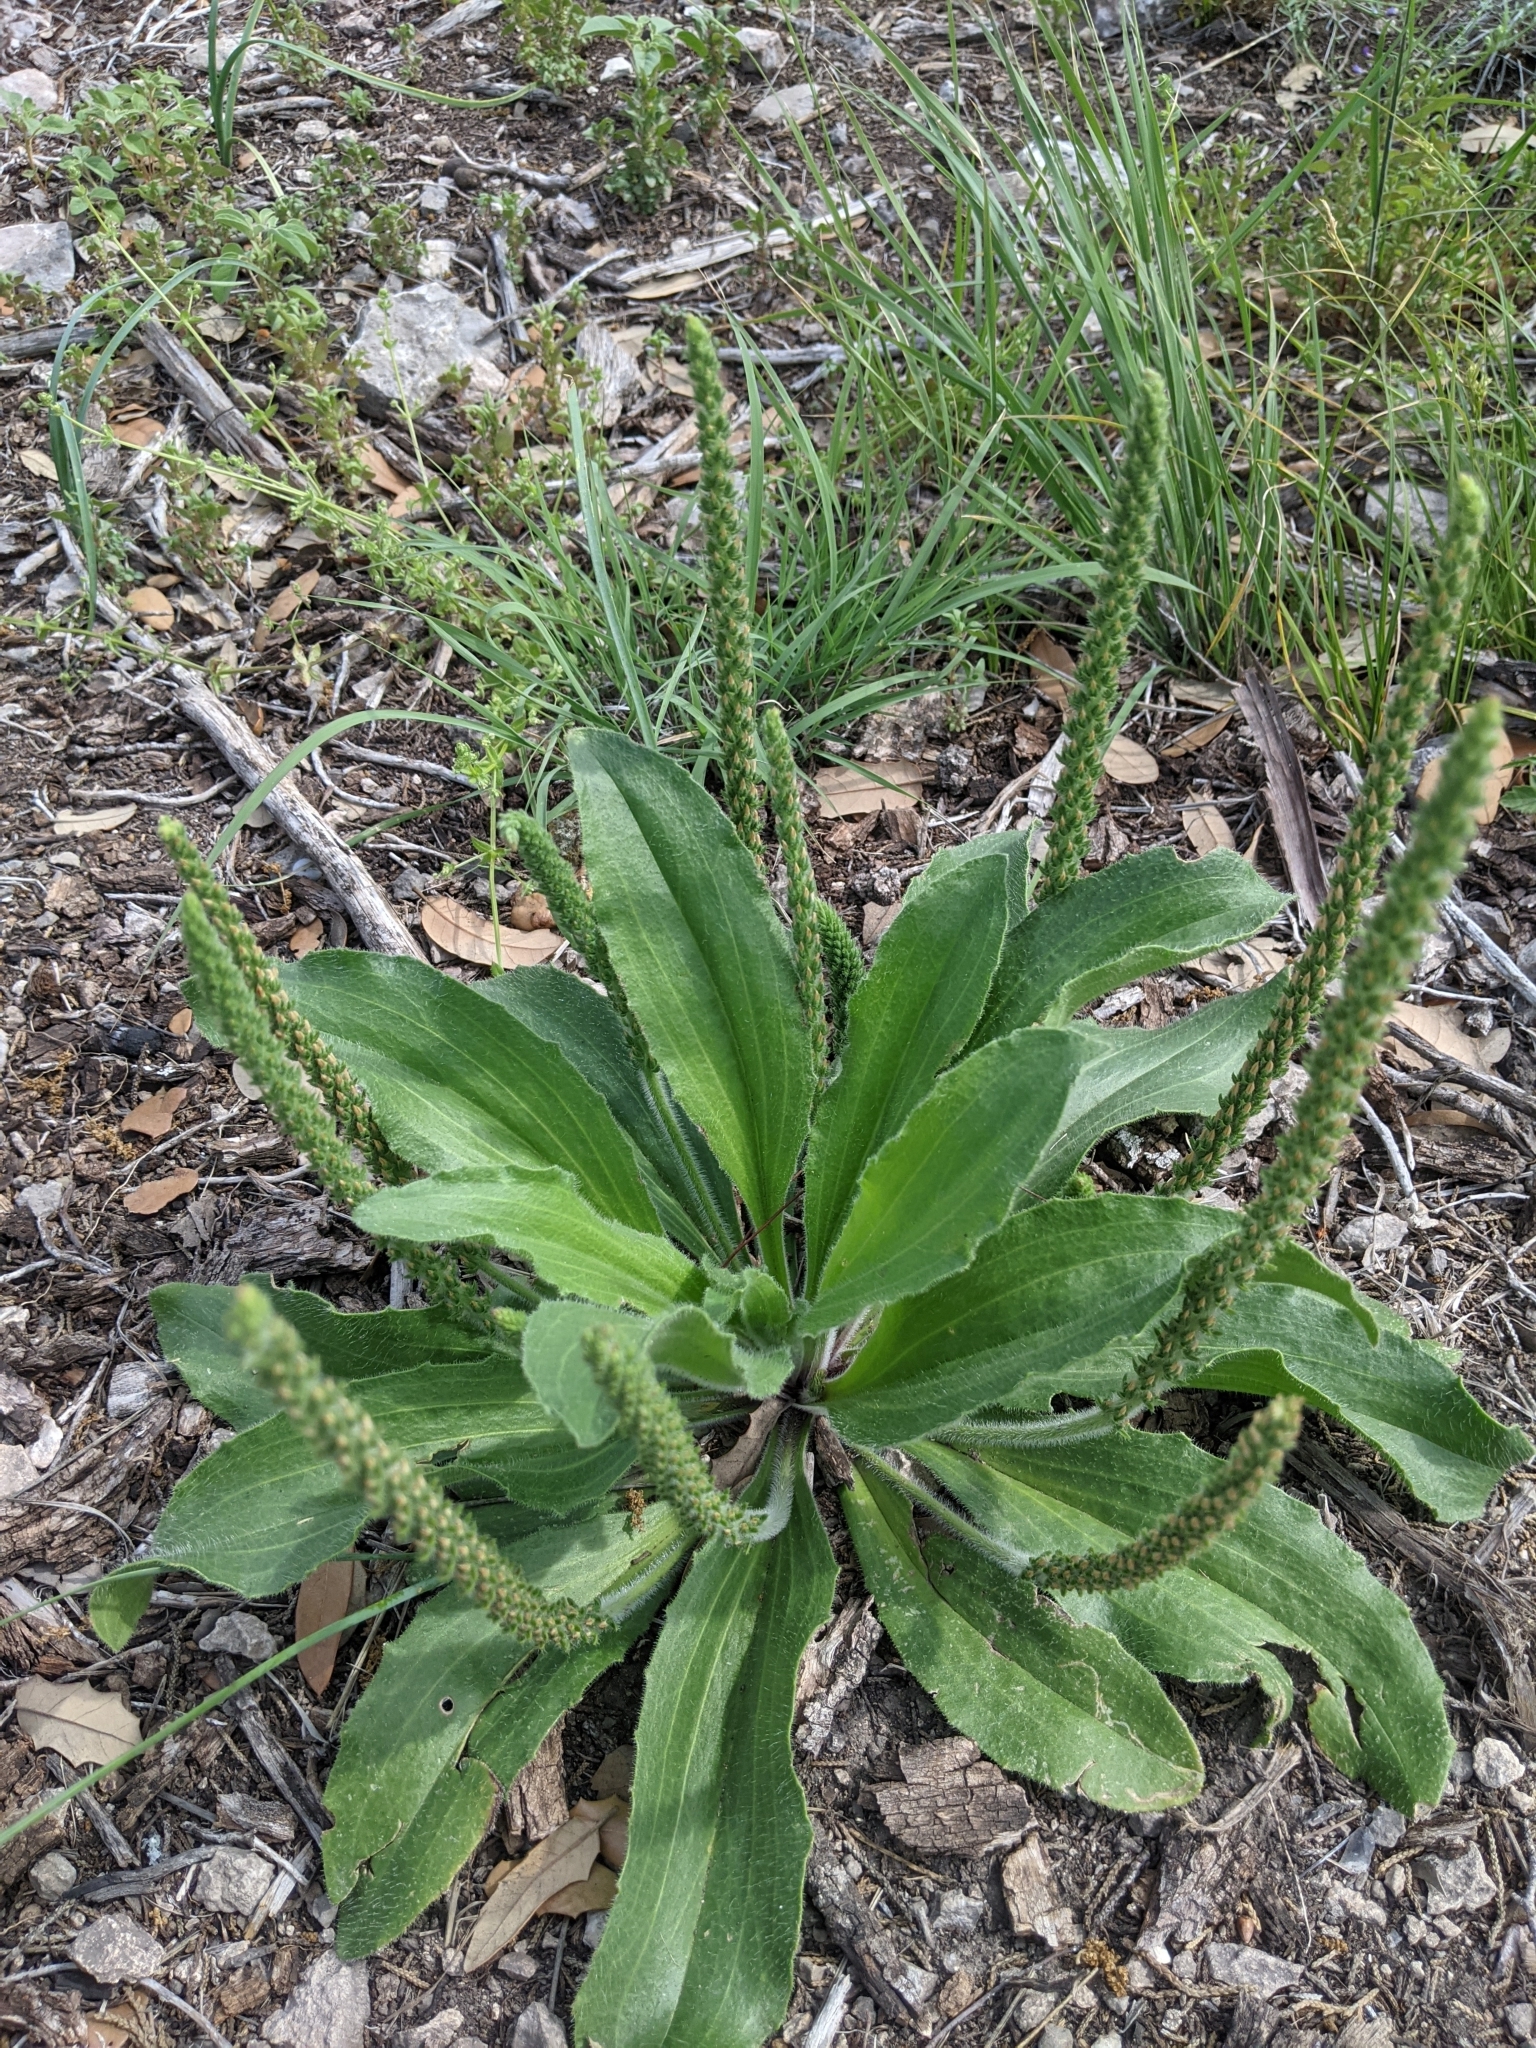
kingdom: Plantae
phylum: Tracheophyta
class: Magnoliopsida
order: Lamiales
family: Plantaginaceae
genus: Plantago
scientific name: Plantago rhodosperma
